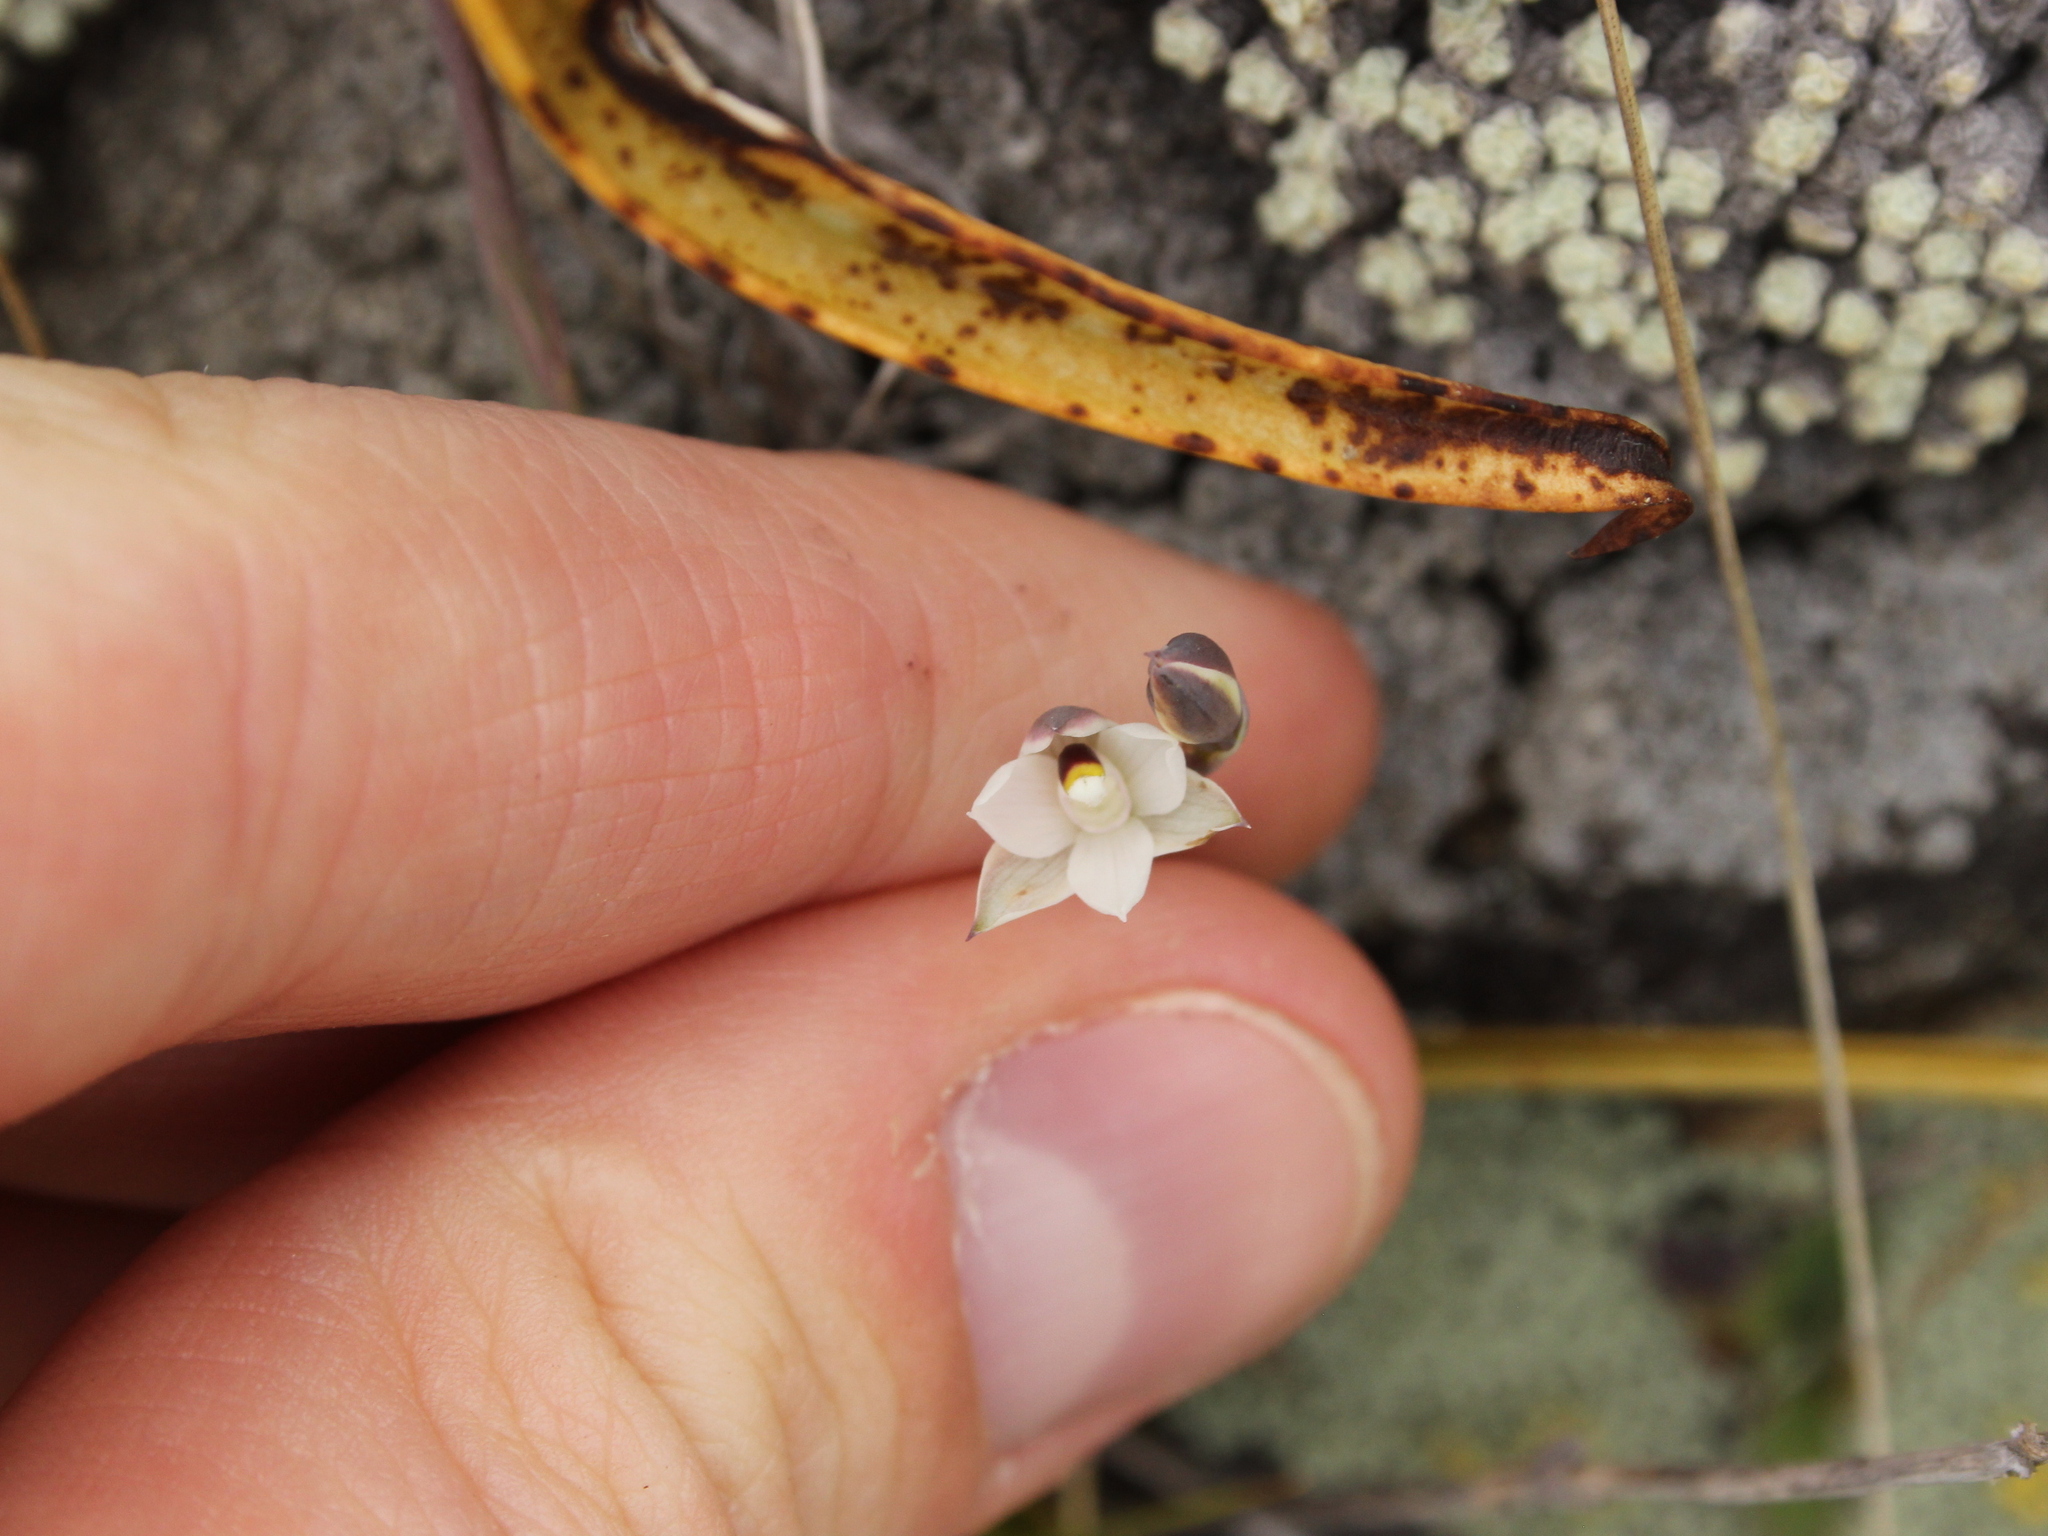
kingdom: Plantae
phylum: Tracheophyta
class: Liliopsida
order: Asparagales
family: Orchidaceae
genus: Thelymitra
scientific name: Thelymitra longifolia
